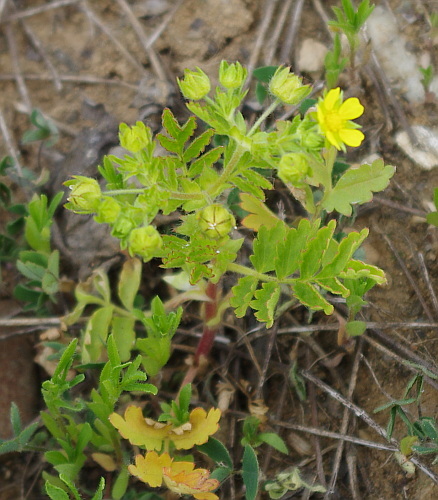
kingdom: Plantae
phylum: Tracheophyta
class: Magnoliopsida
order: Rosales
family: Rosaceae
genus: Potentilla
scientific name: Potentilla supina
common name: Prostrate cinquefoil
